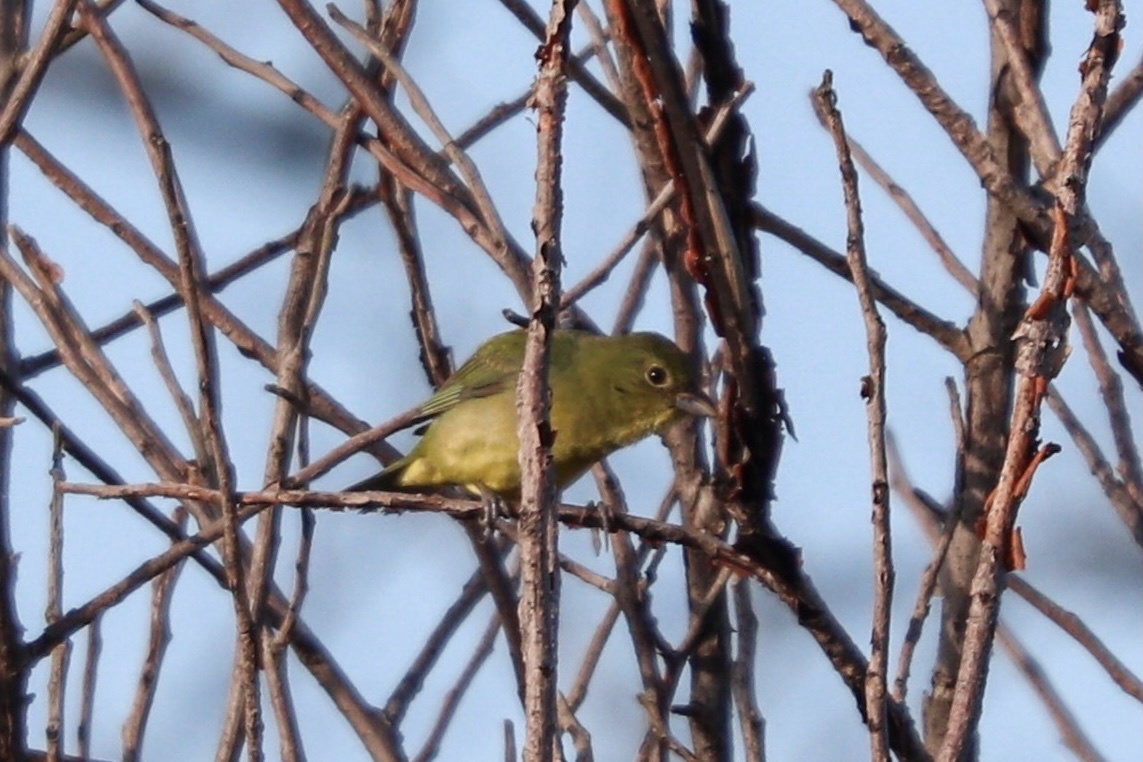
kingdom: Animalia
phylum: Chordata
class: Aves
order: Passeriformes
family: Cardinalidae
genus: Passerina
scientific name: Passerina ciris
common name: Painted bunting
